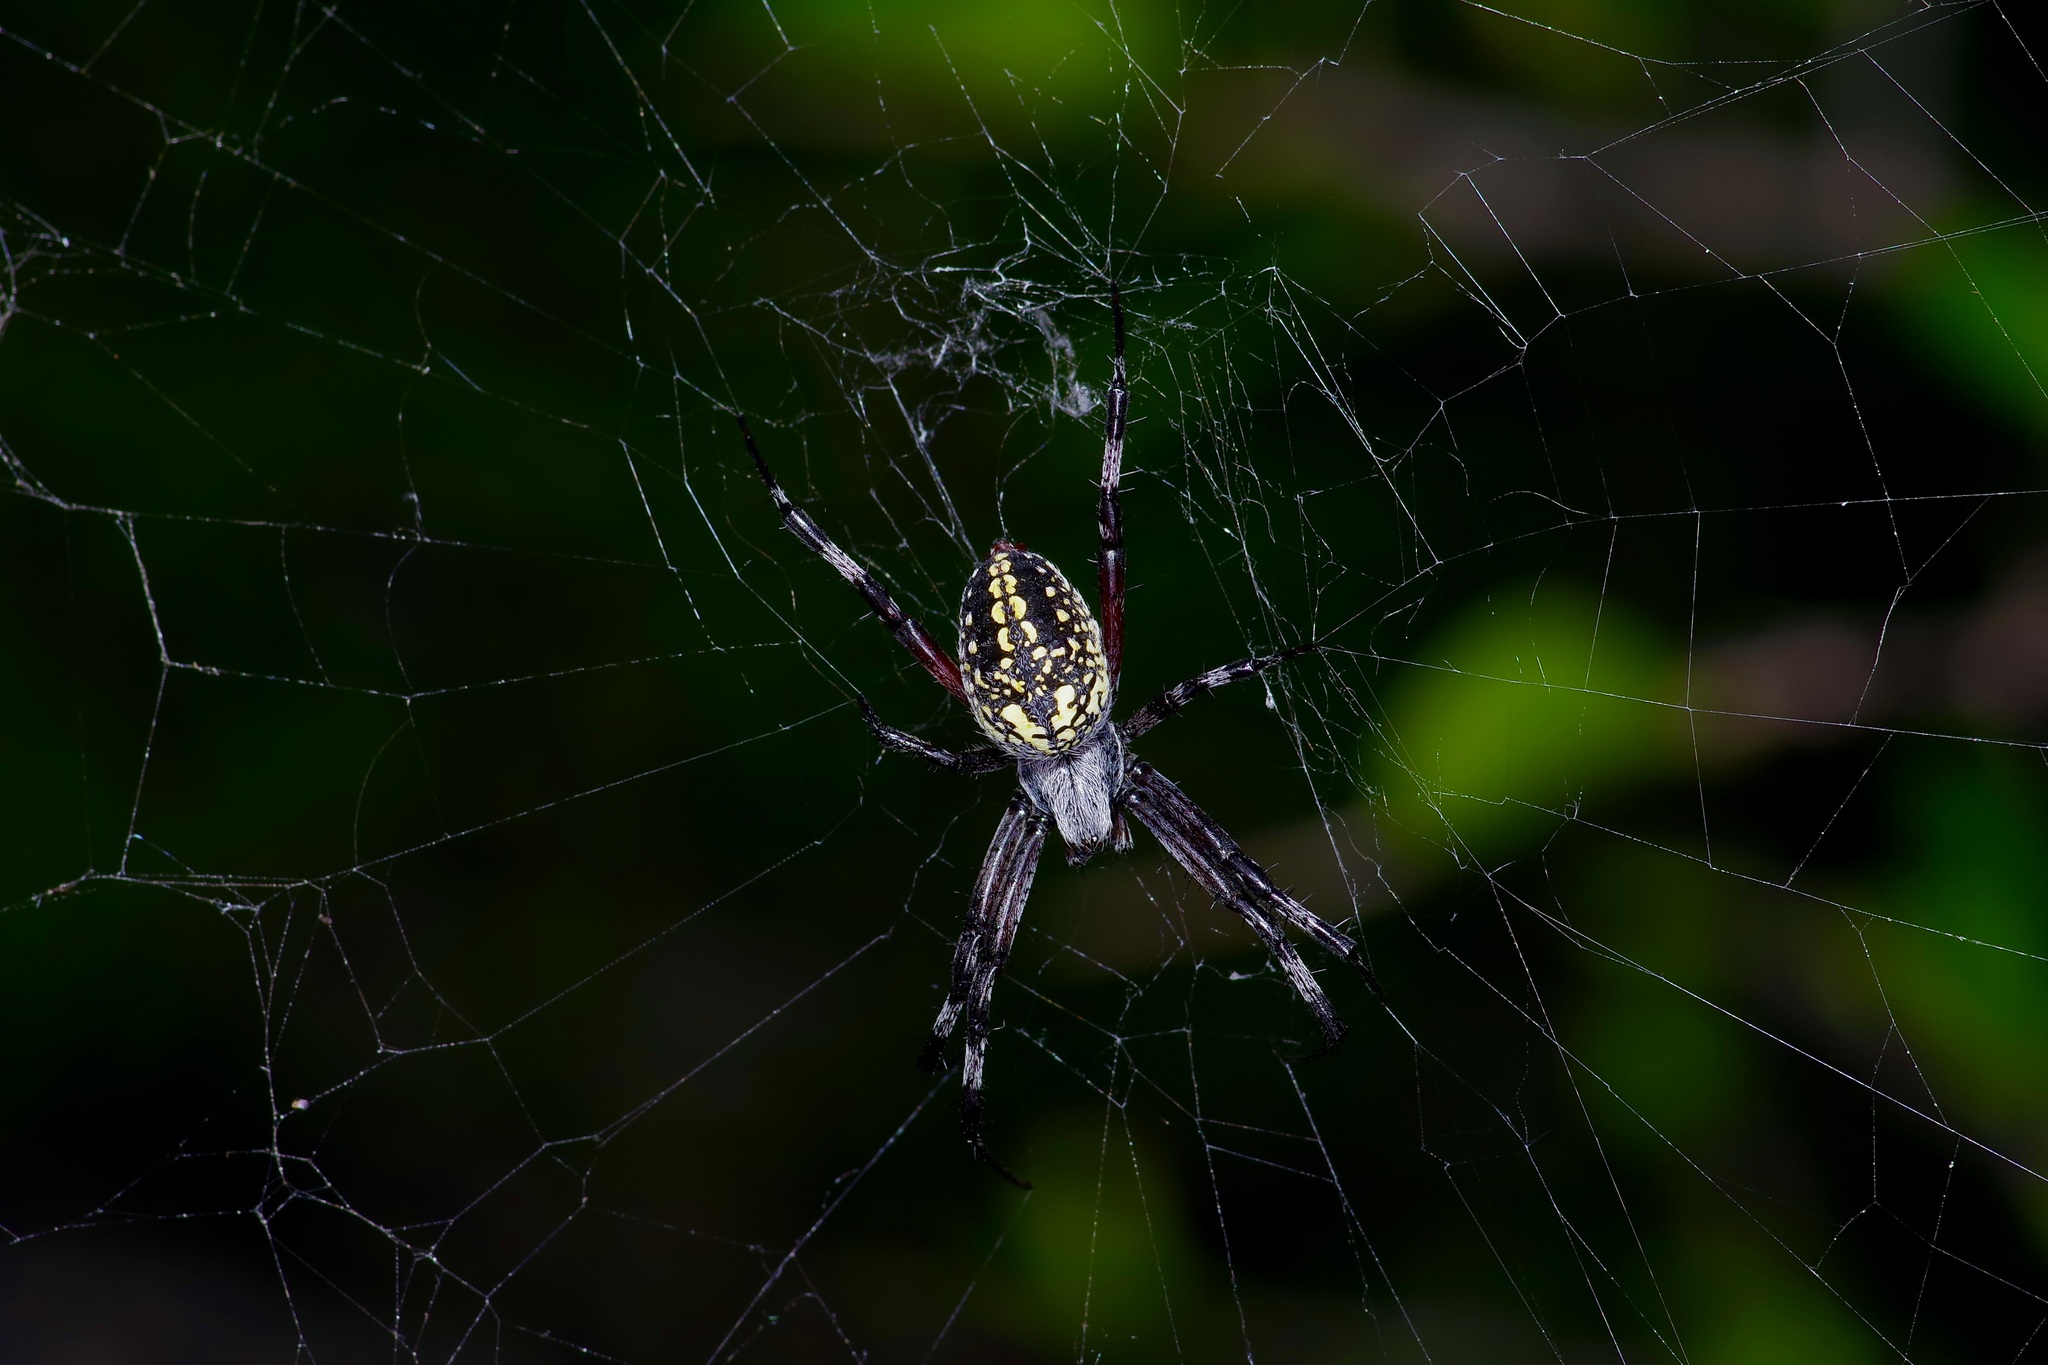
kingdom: Animalia
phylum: Arthropoda
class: Arachnida
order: Araneae
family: Araneidae
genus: Neoscona
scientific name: Neoscona oaxacensis
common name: Orb weavers
